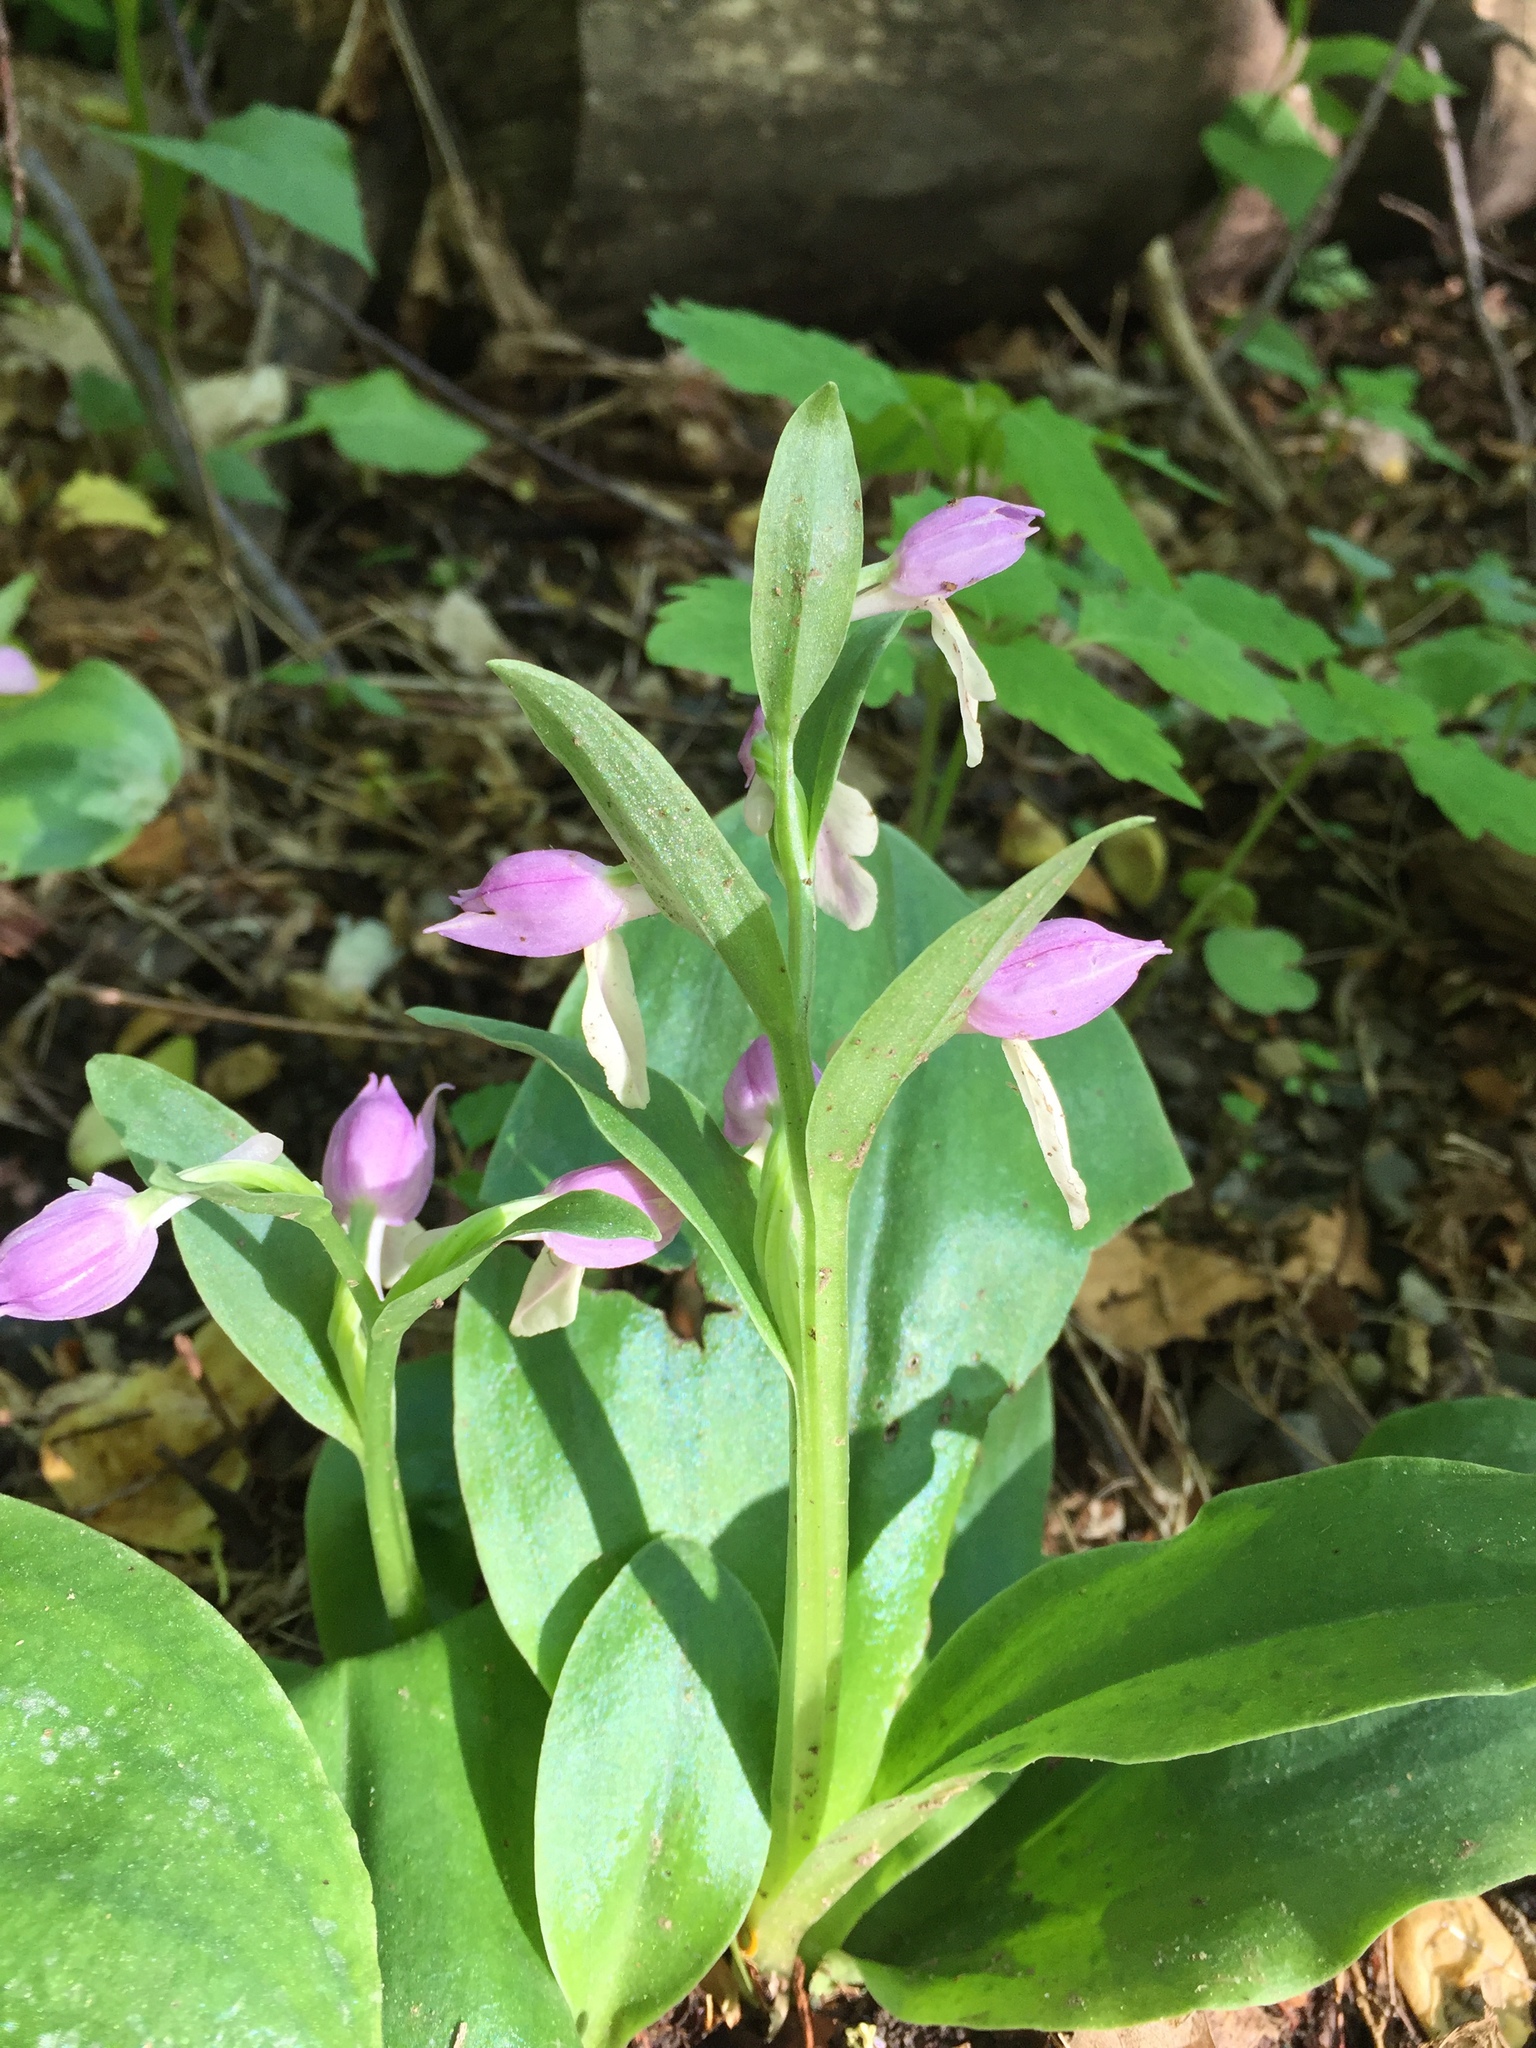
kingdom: Plantae
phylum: Tracheophyta
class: Liliopsida
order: Asparagales
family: Orchidaceae
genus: Galearis
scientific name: Galearis spectabilis
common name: Purple-hooded orchis
